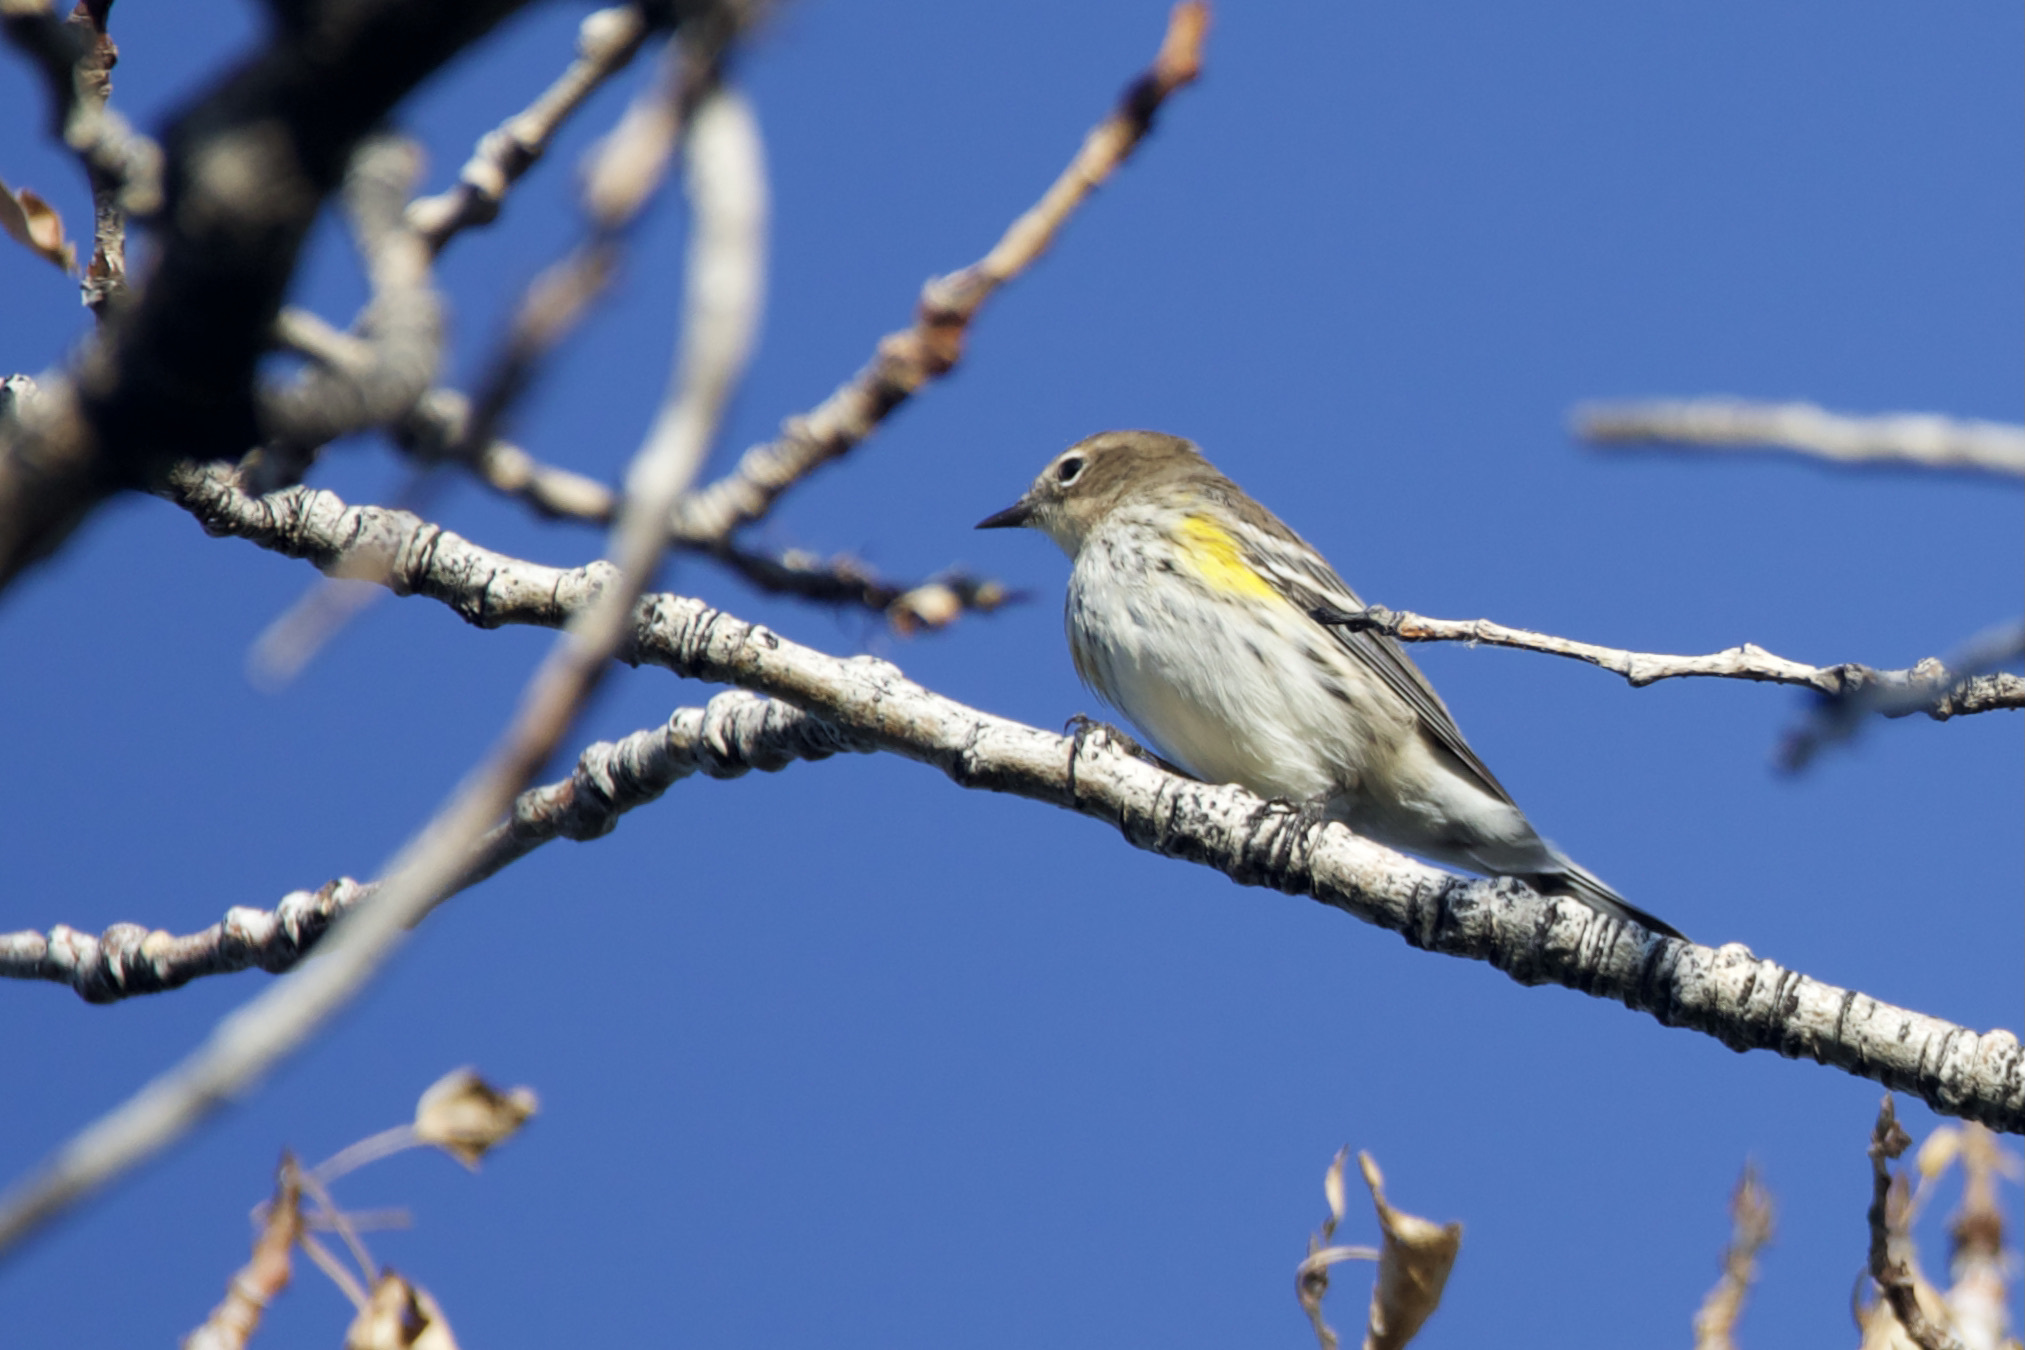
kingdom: Animalia
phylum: Chordata
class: Aves
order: Passeriformes
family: Parulidae
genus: Setophaga
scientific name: Setophaga coronata
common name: Myrtle warbler
